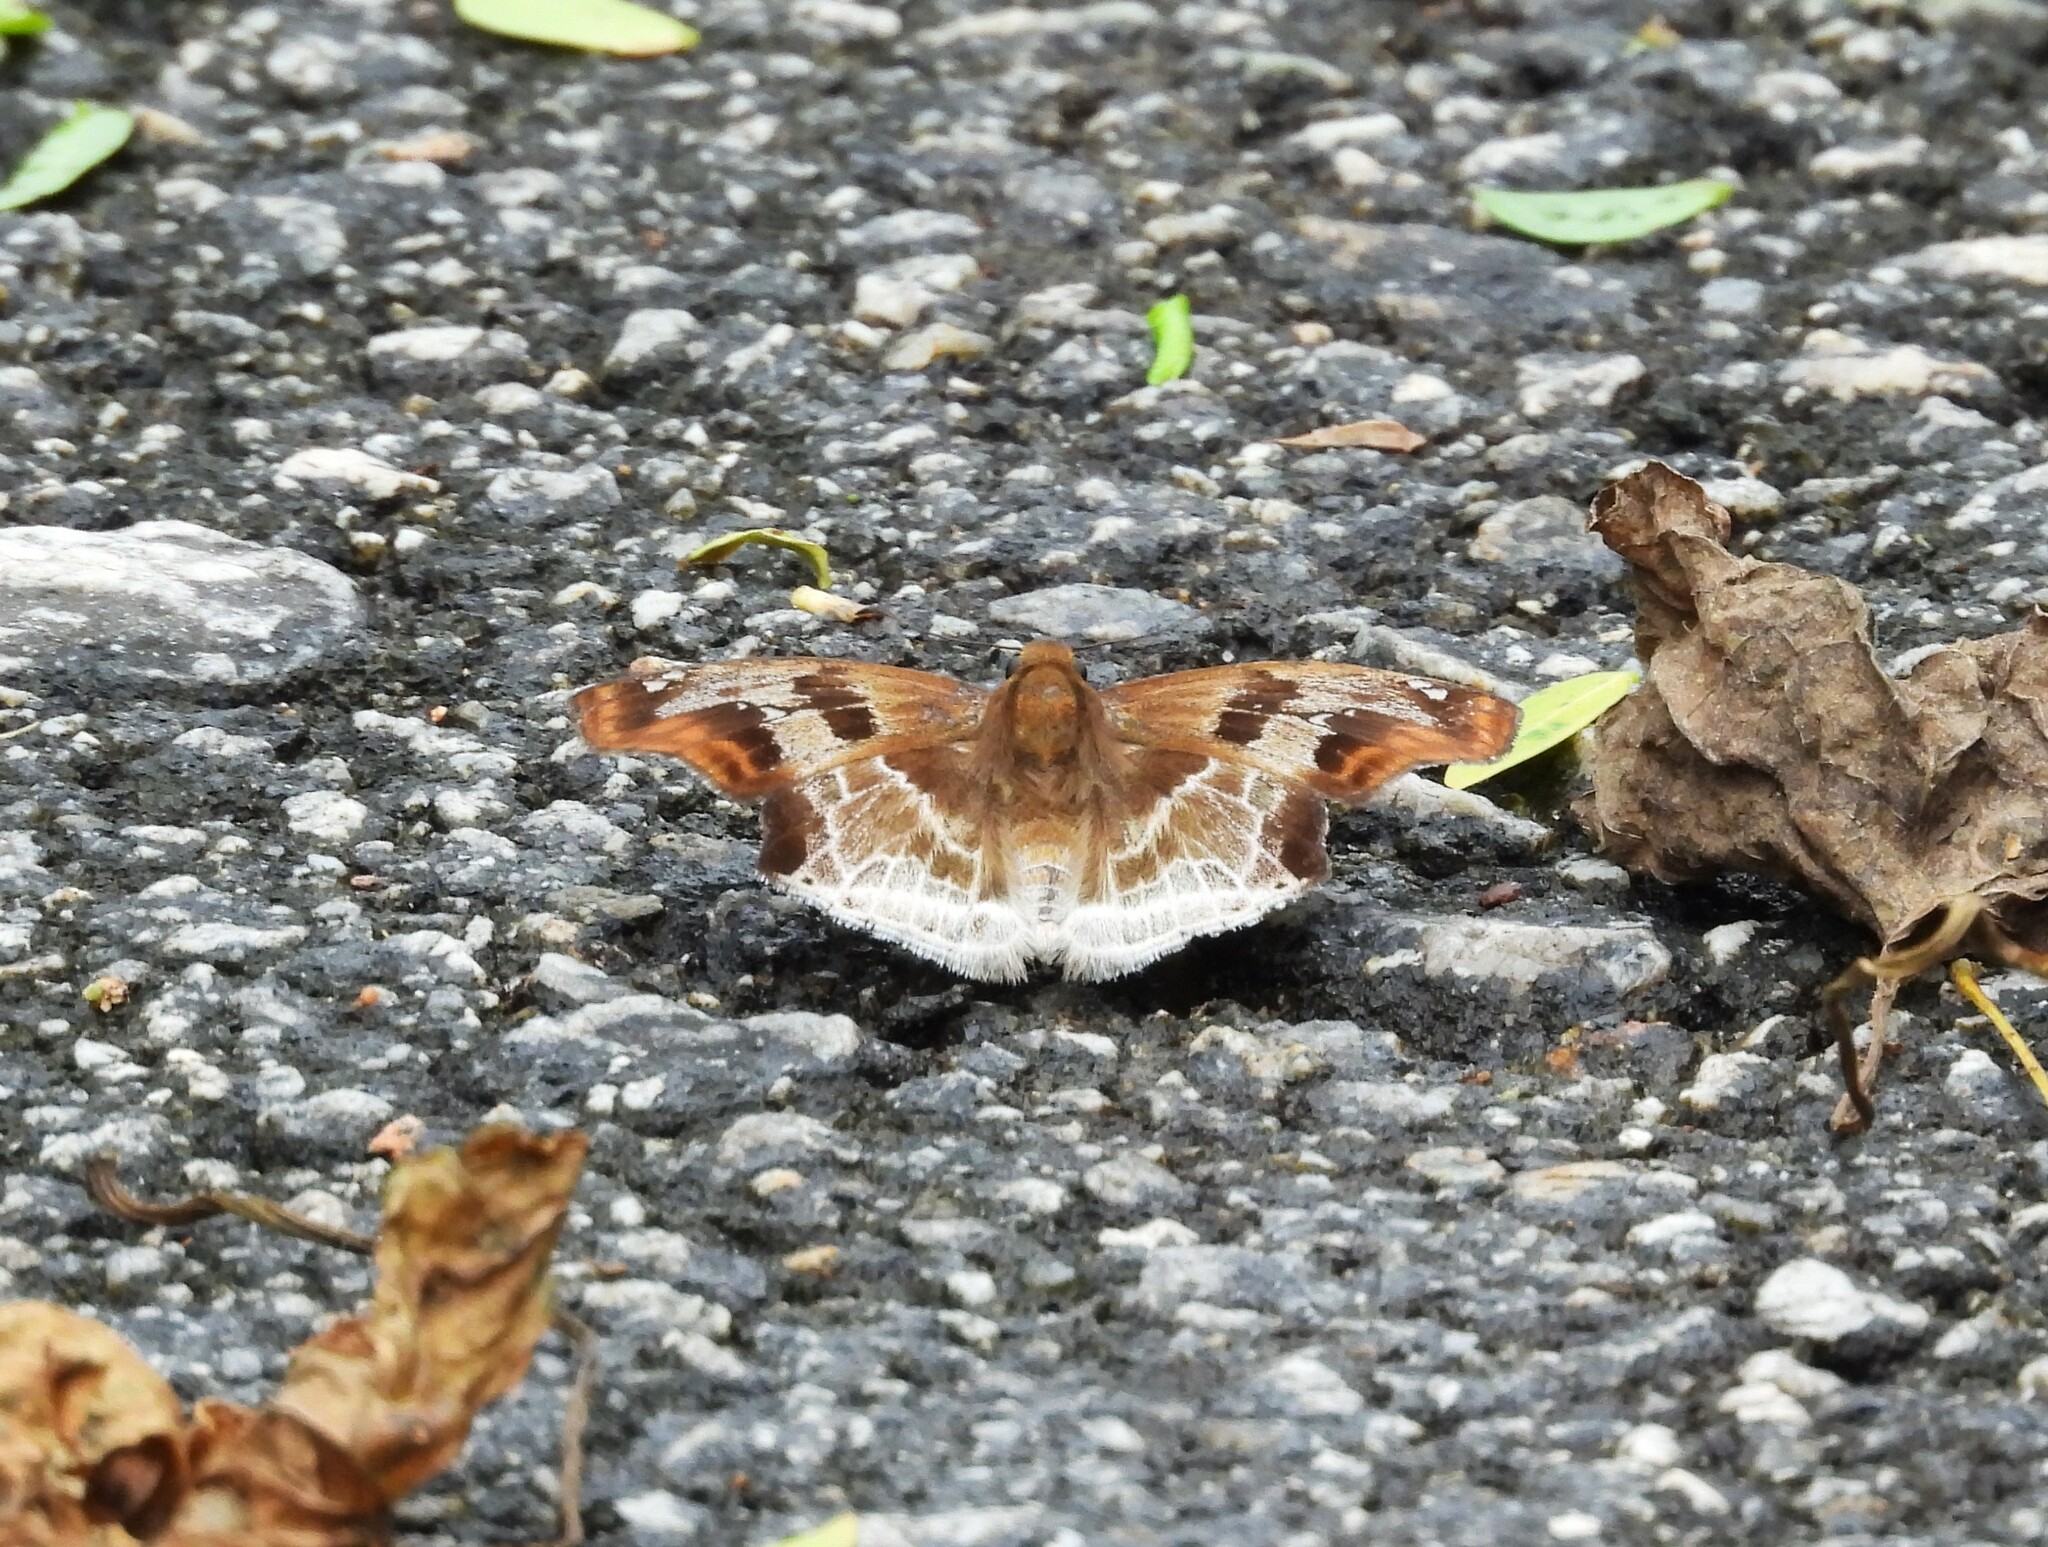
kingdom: Animalia
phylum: Arthropoda
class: Insecta
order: Lepidoptera
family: Hesperiidae
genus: Odontoptilum
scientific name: Odontoptilum angulata
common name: Chestnut banded angle
